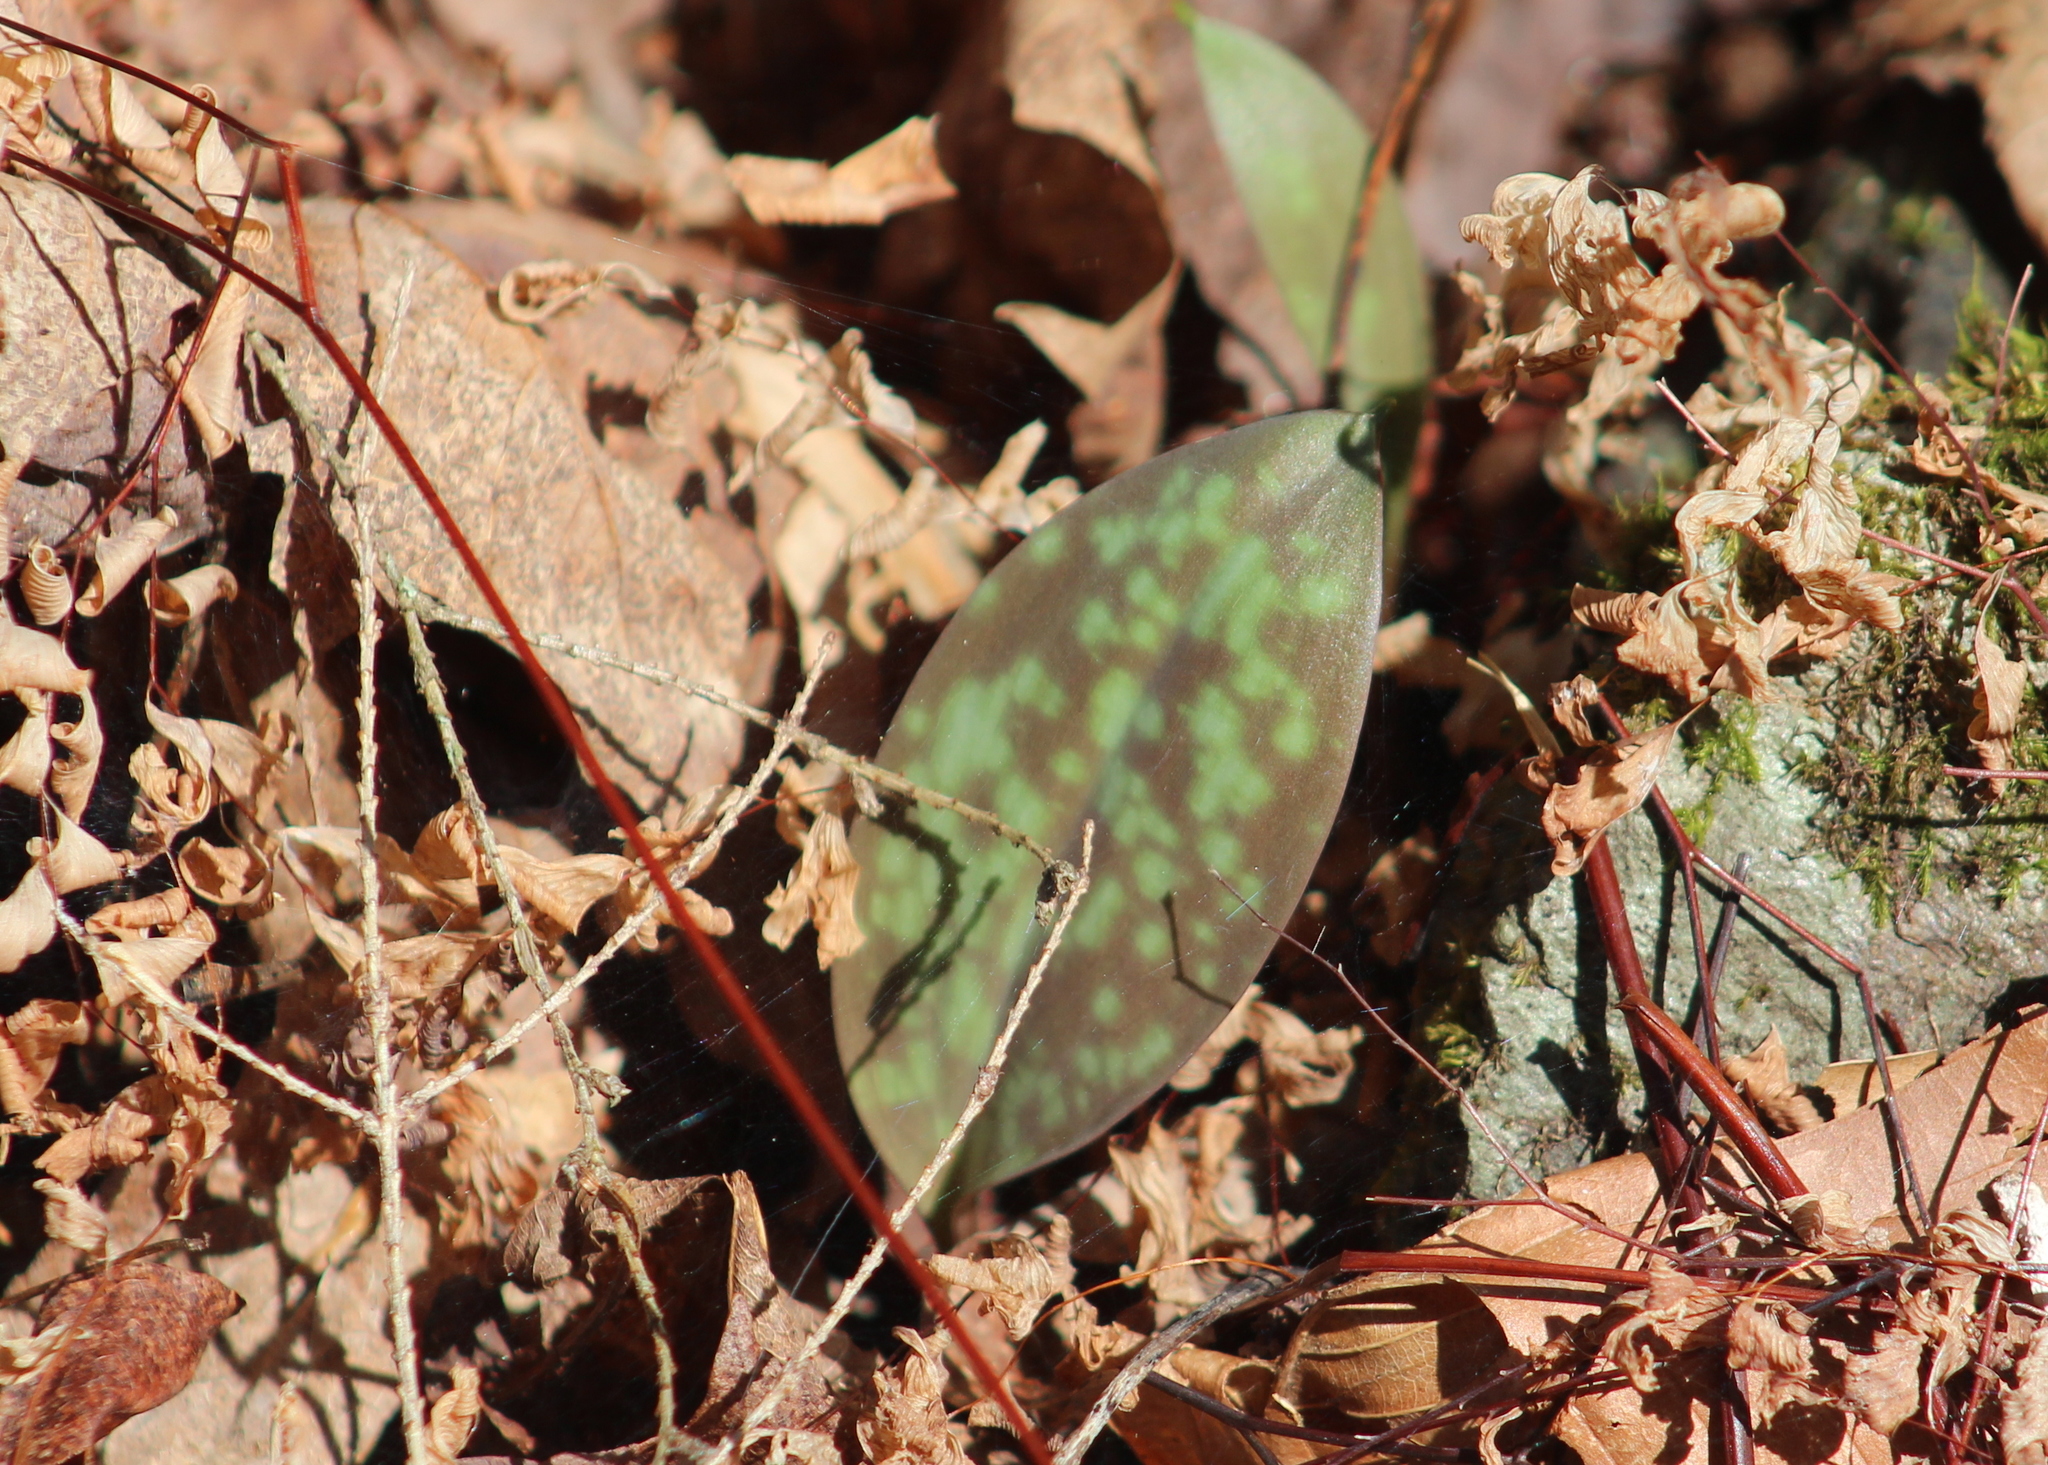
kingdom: Plantae
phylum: Tracheophyta
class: Liliopsida
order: Liliales
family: Liliaceae
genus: Erythronium
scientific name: Erythronium americanum
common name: Yellow adder's-tongue
